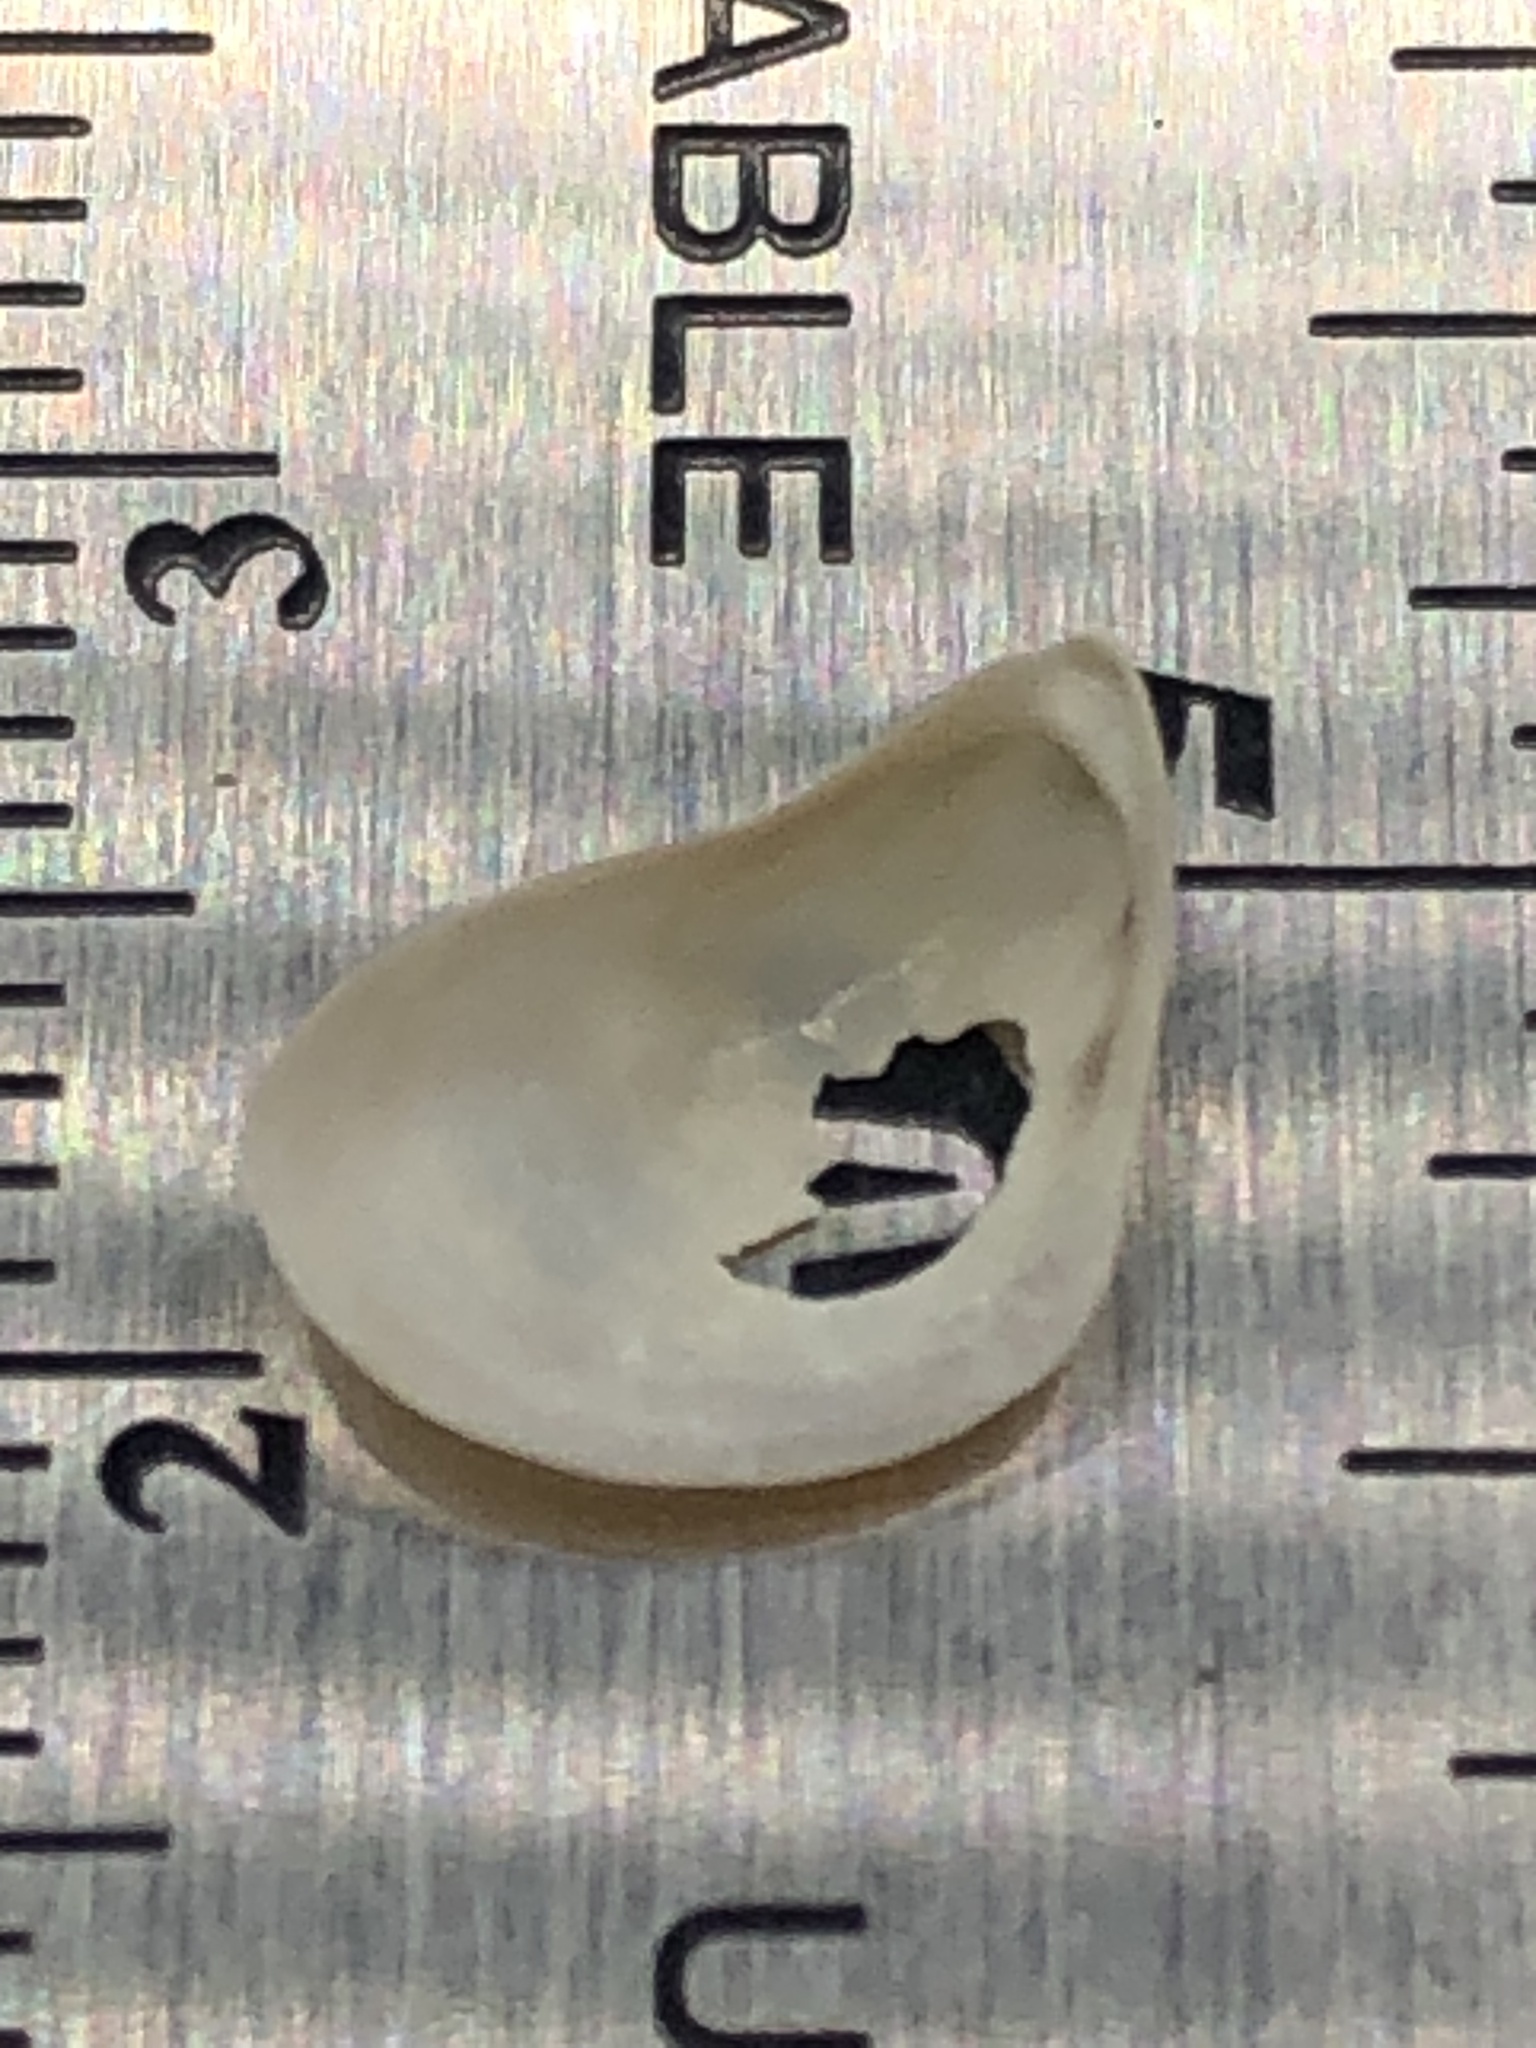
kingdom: Animalia
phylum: Mollusca
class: Bivalvia
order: Myida
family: Dreissenidae
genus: Dreissena
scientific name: Dreissena bugensis
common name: Quagga mussel
